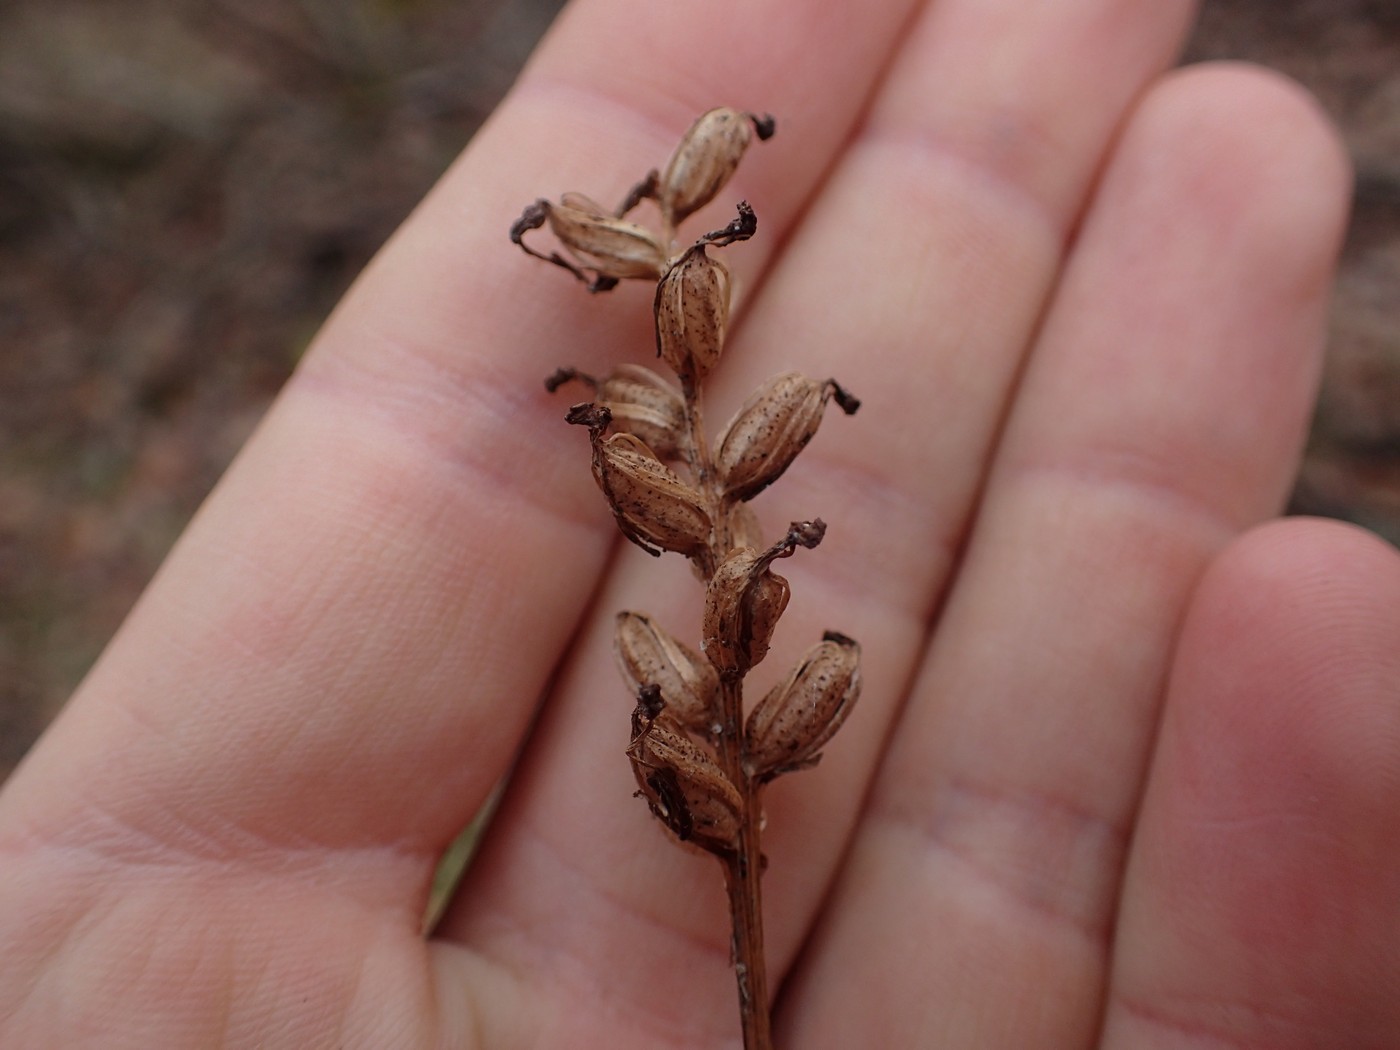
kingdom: Plantae
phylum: Tracheophyta
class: Liliopsida
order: Asparagales
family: Orchidaceae
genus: Platanthera
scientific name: Platanthera clavellata
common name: Club-spur orchid
